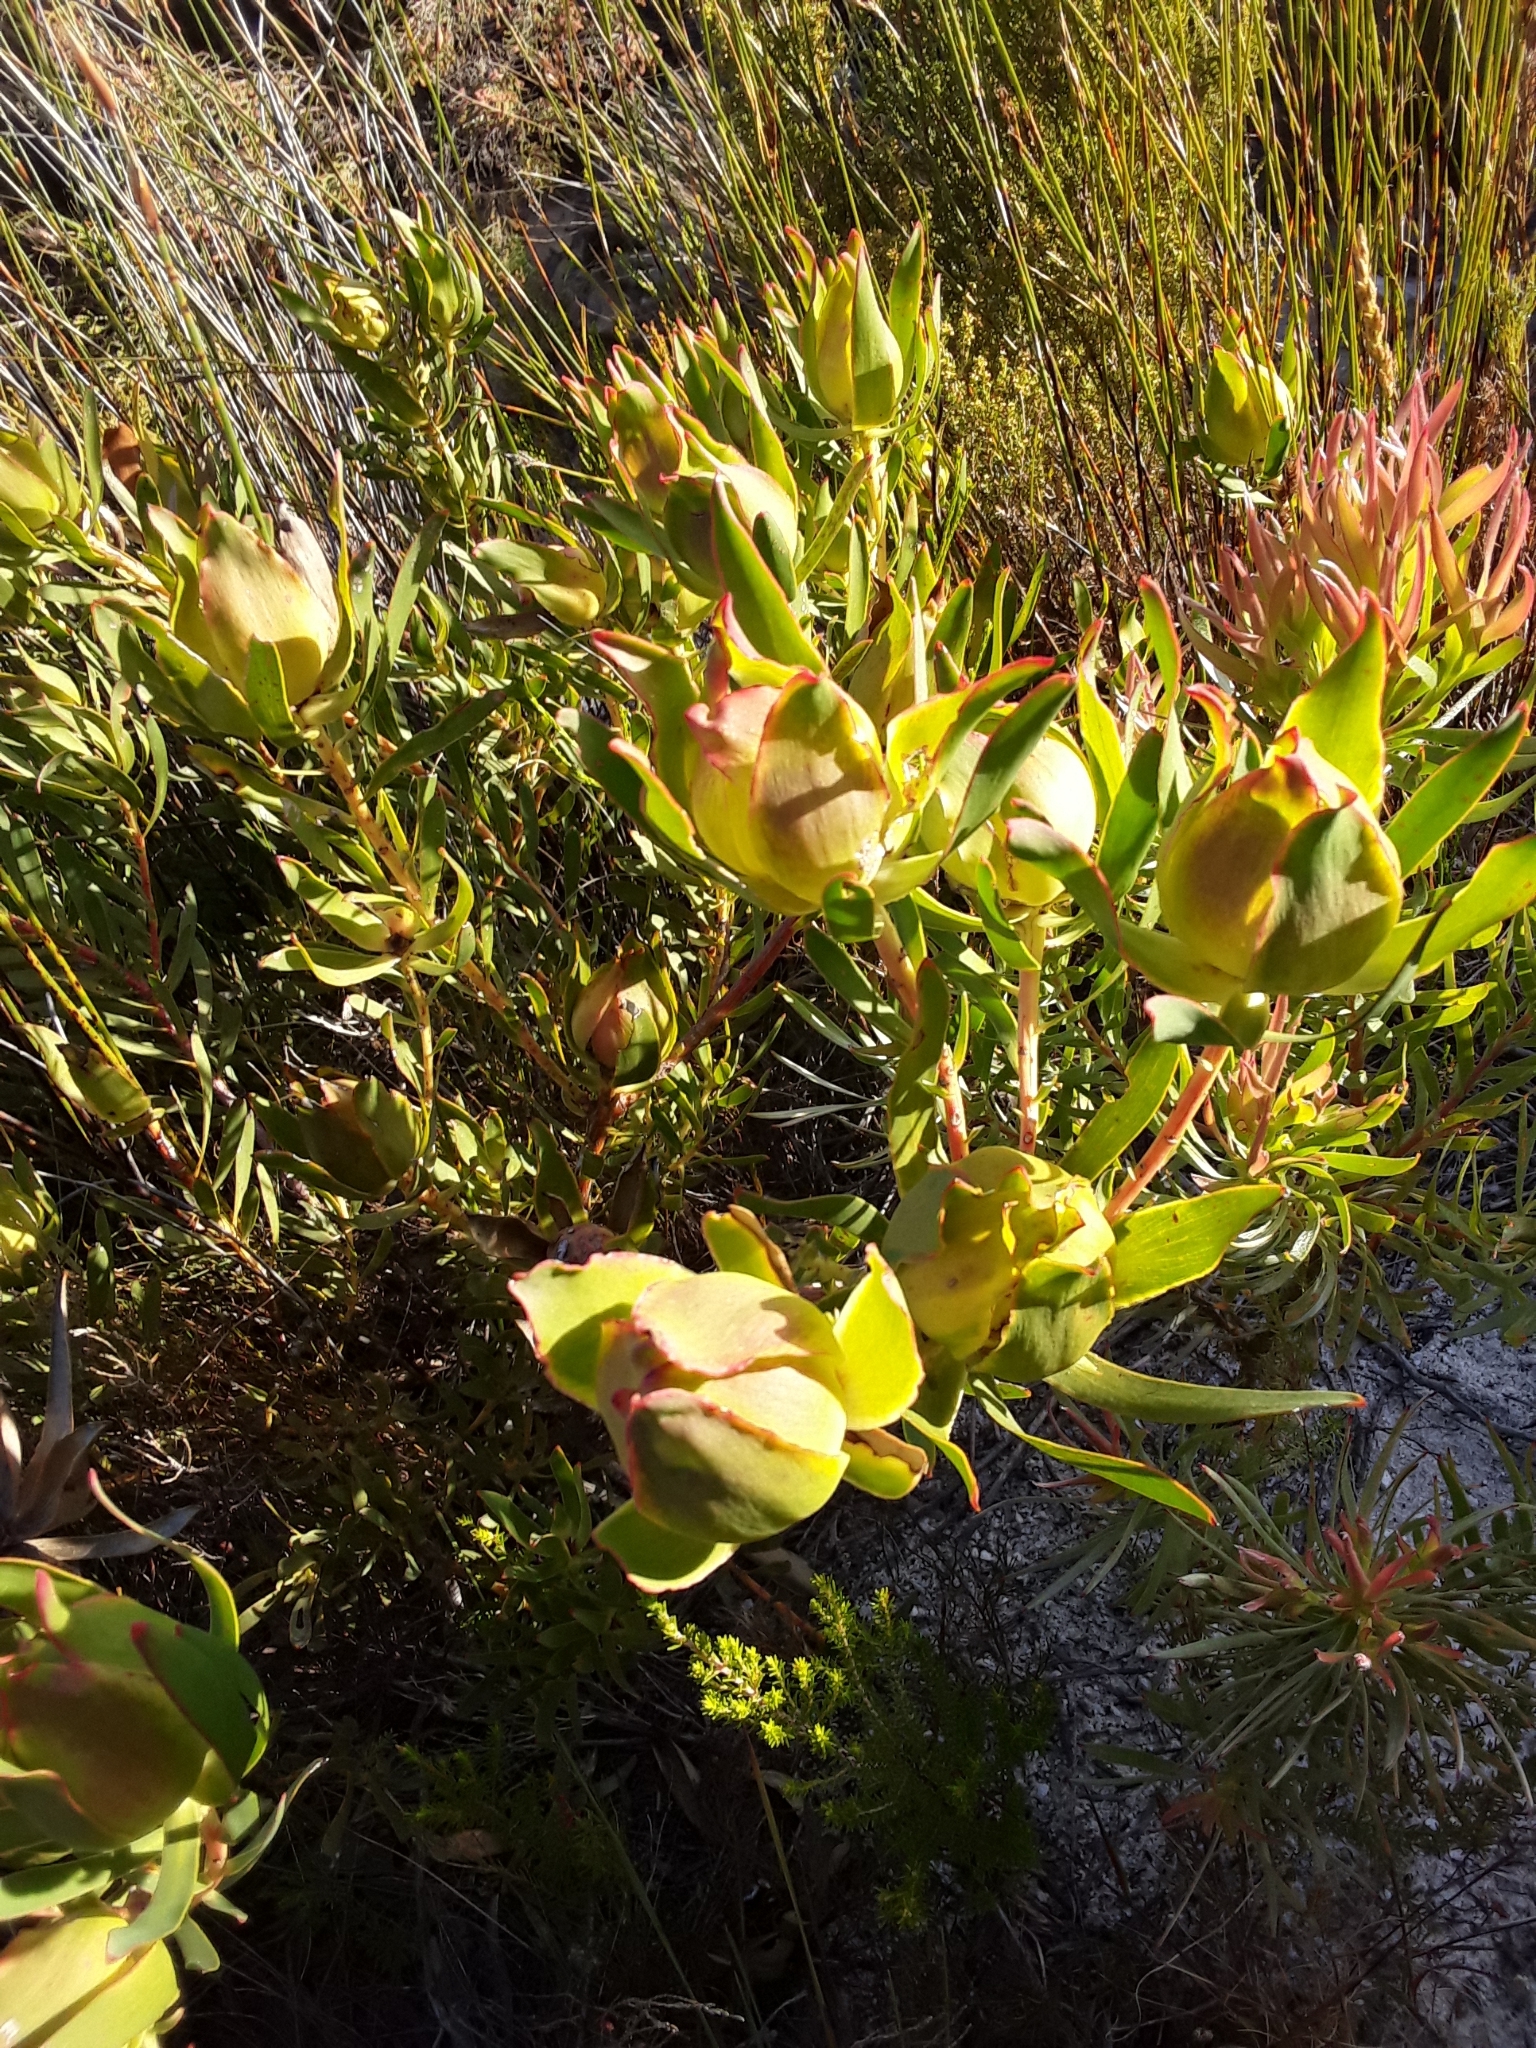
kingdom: Plantae
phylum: Tracheophyta
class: Magnoliopsida
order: Proteales
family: Proteaceae
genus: Leucadendron
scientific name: Leucadendron salignum
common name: Common sunshine conebush
